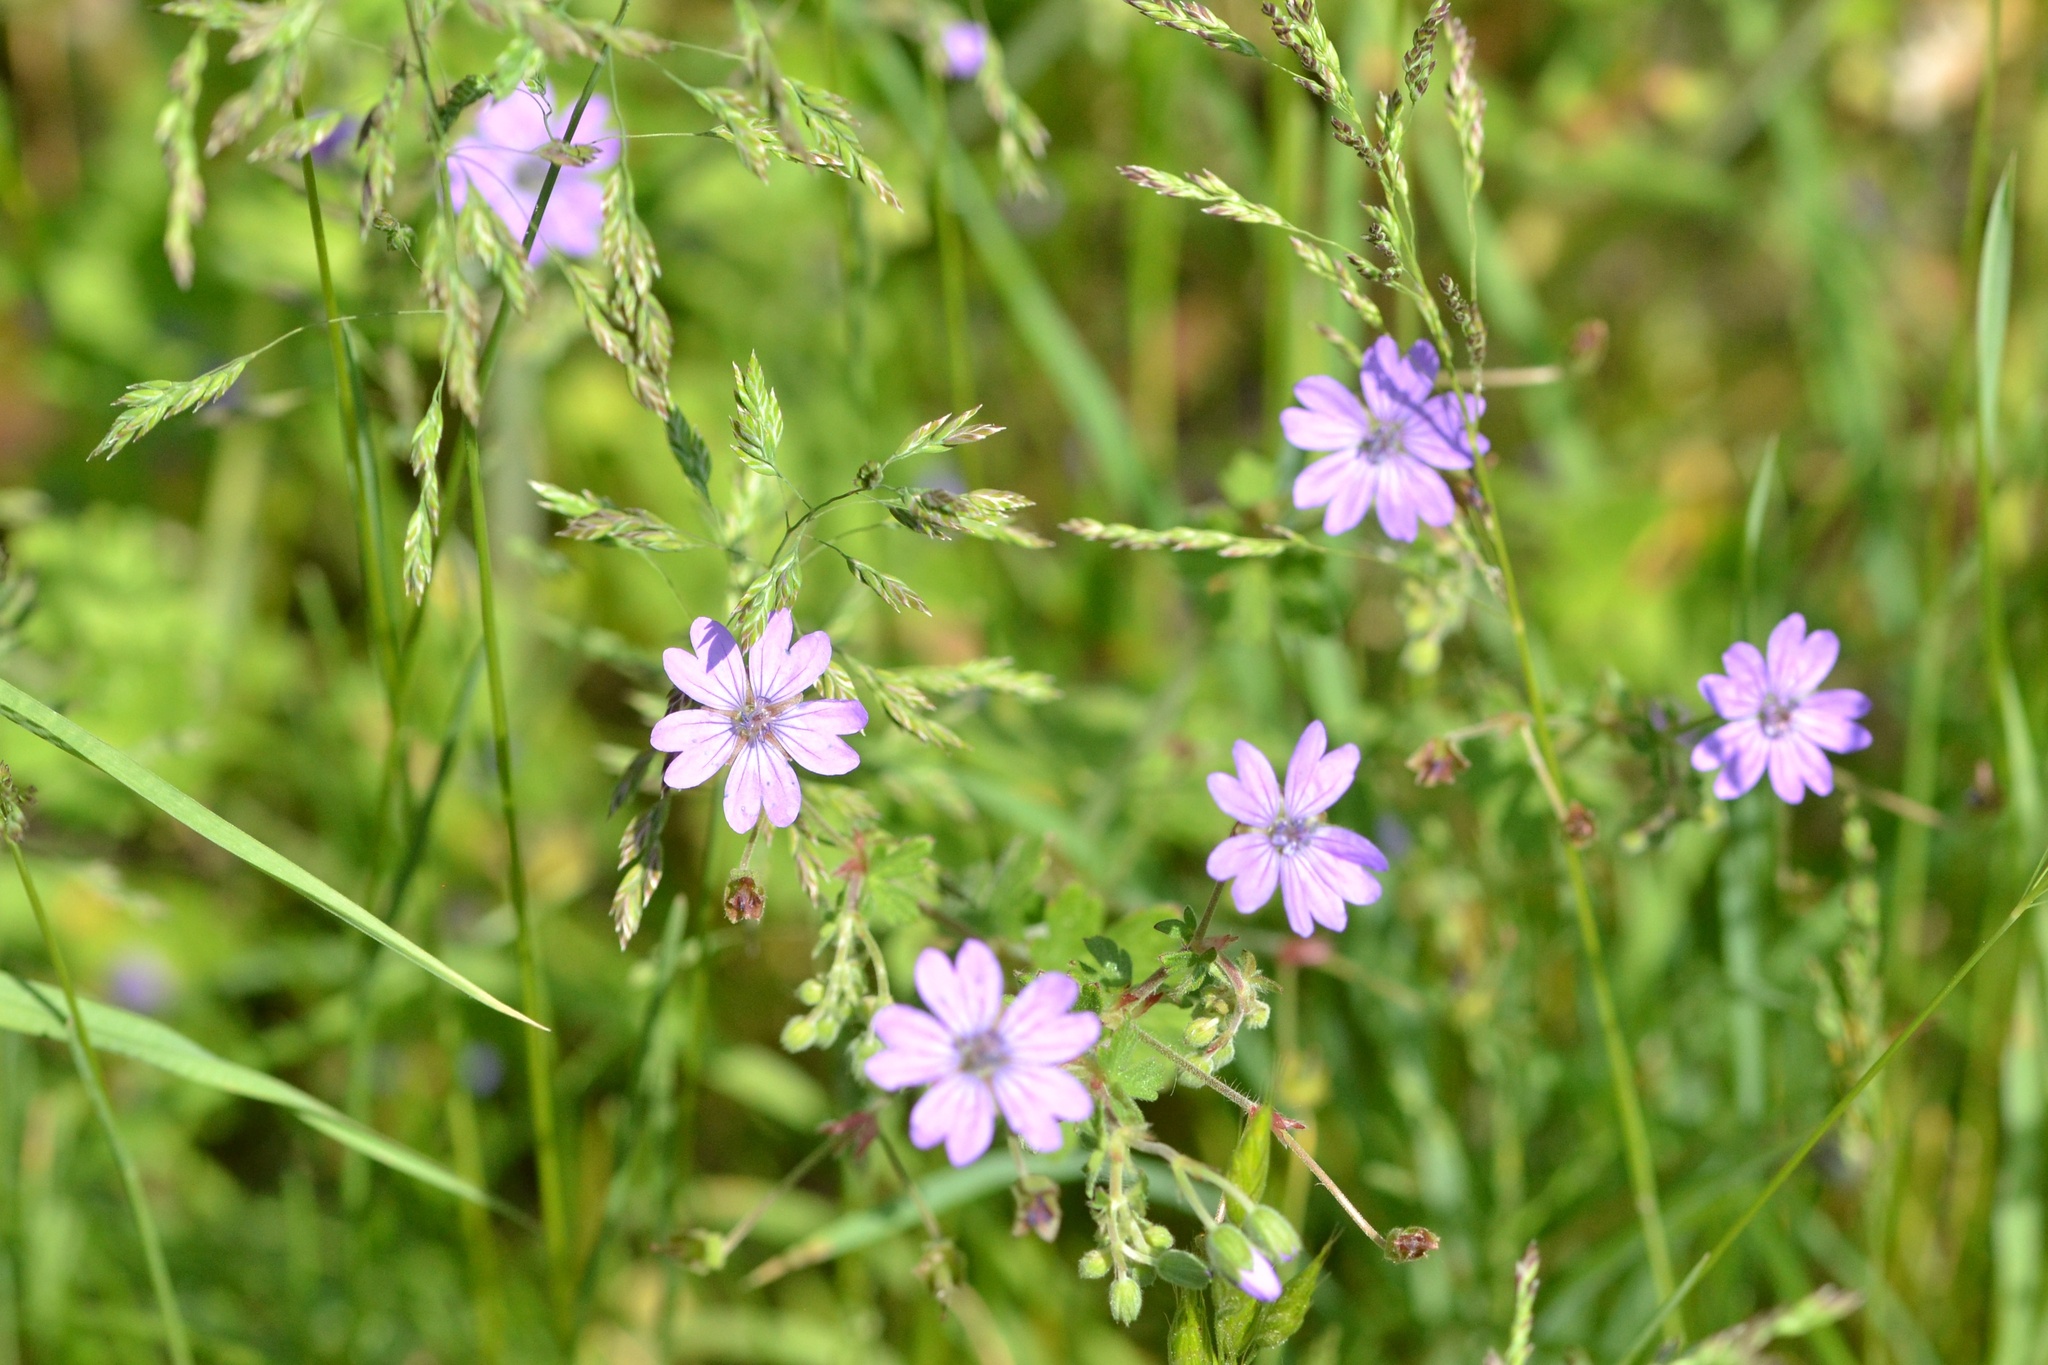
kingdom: Plantae
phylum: Tracheophyta
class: Magnoliopsida
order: Geraniales
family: Geraniaceae
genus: Geranium
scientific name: Geranium pyrenaicum
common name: Hedgerow crane's-bill
